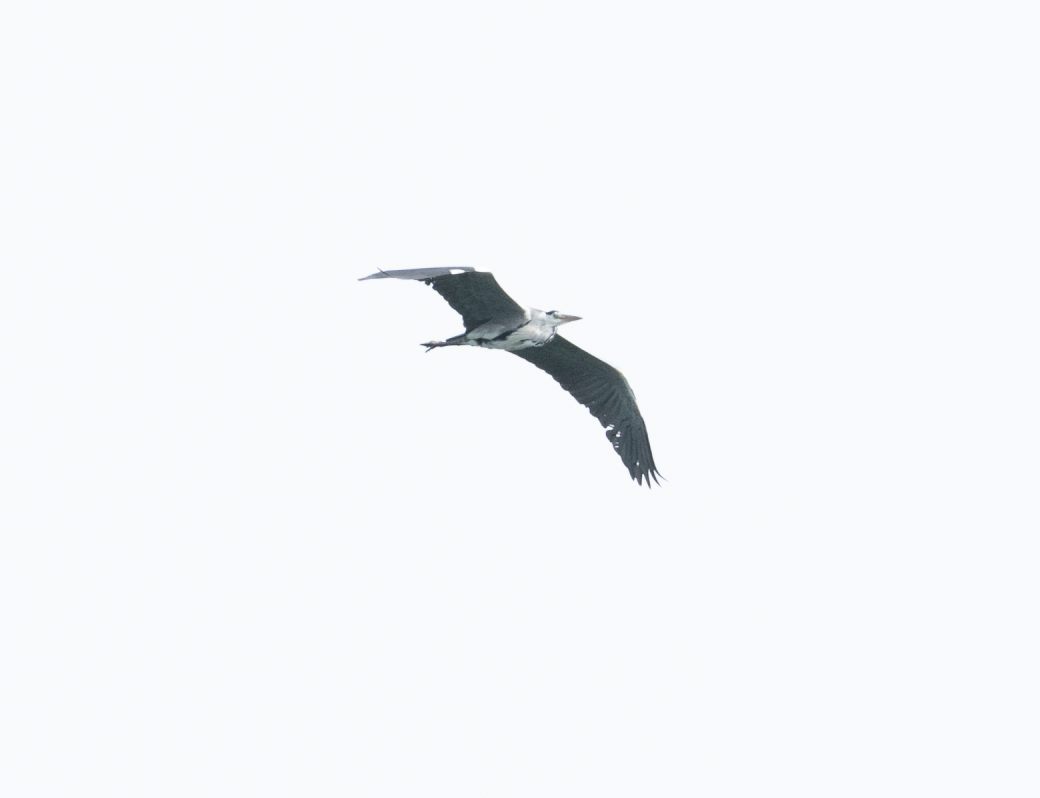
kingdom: Animalia
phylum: Chordata
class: Aves
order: Pelecaniformes
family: Ardeidae
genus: Ardea
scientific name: Ardea cinerea
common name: Grey heron
